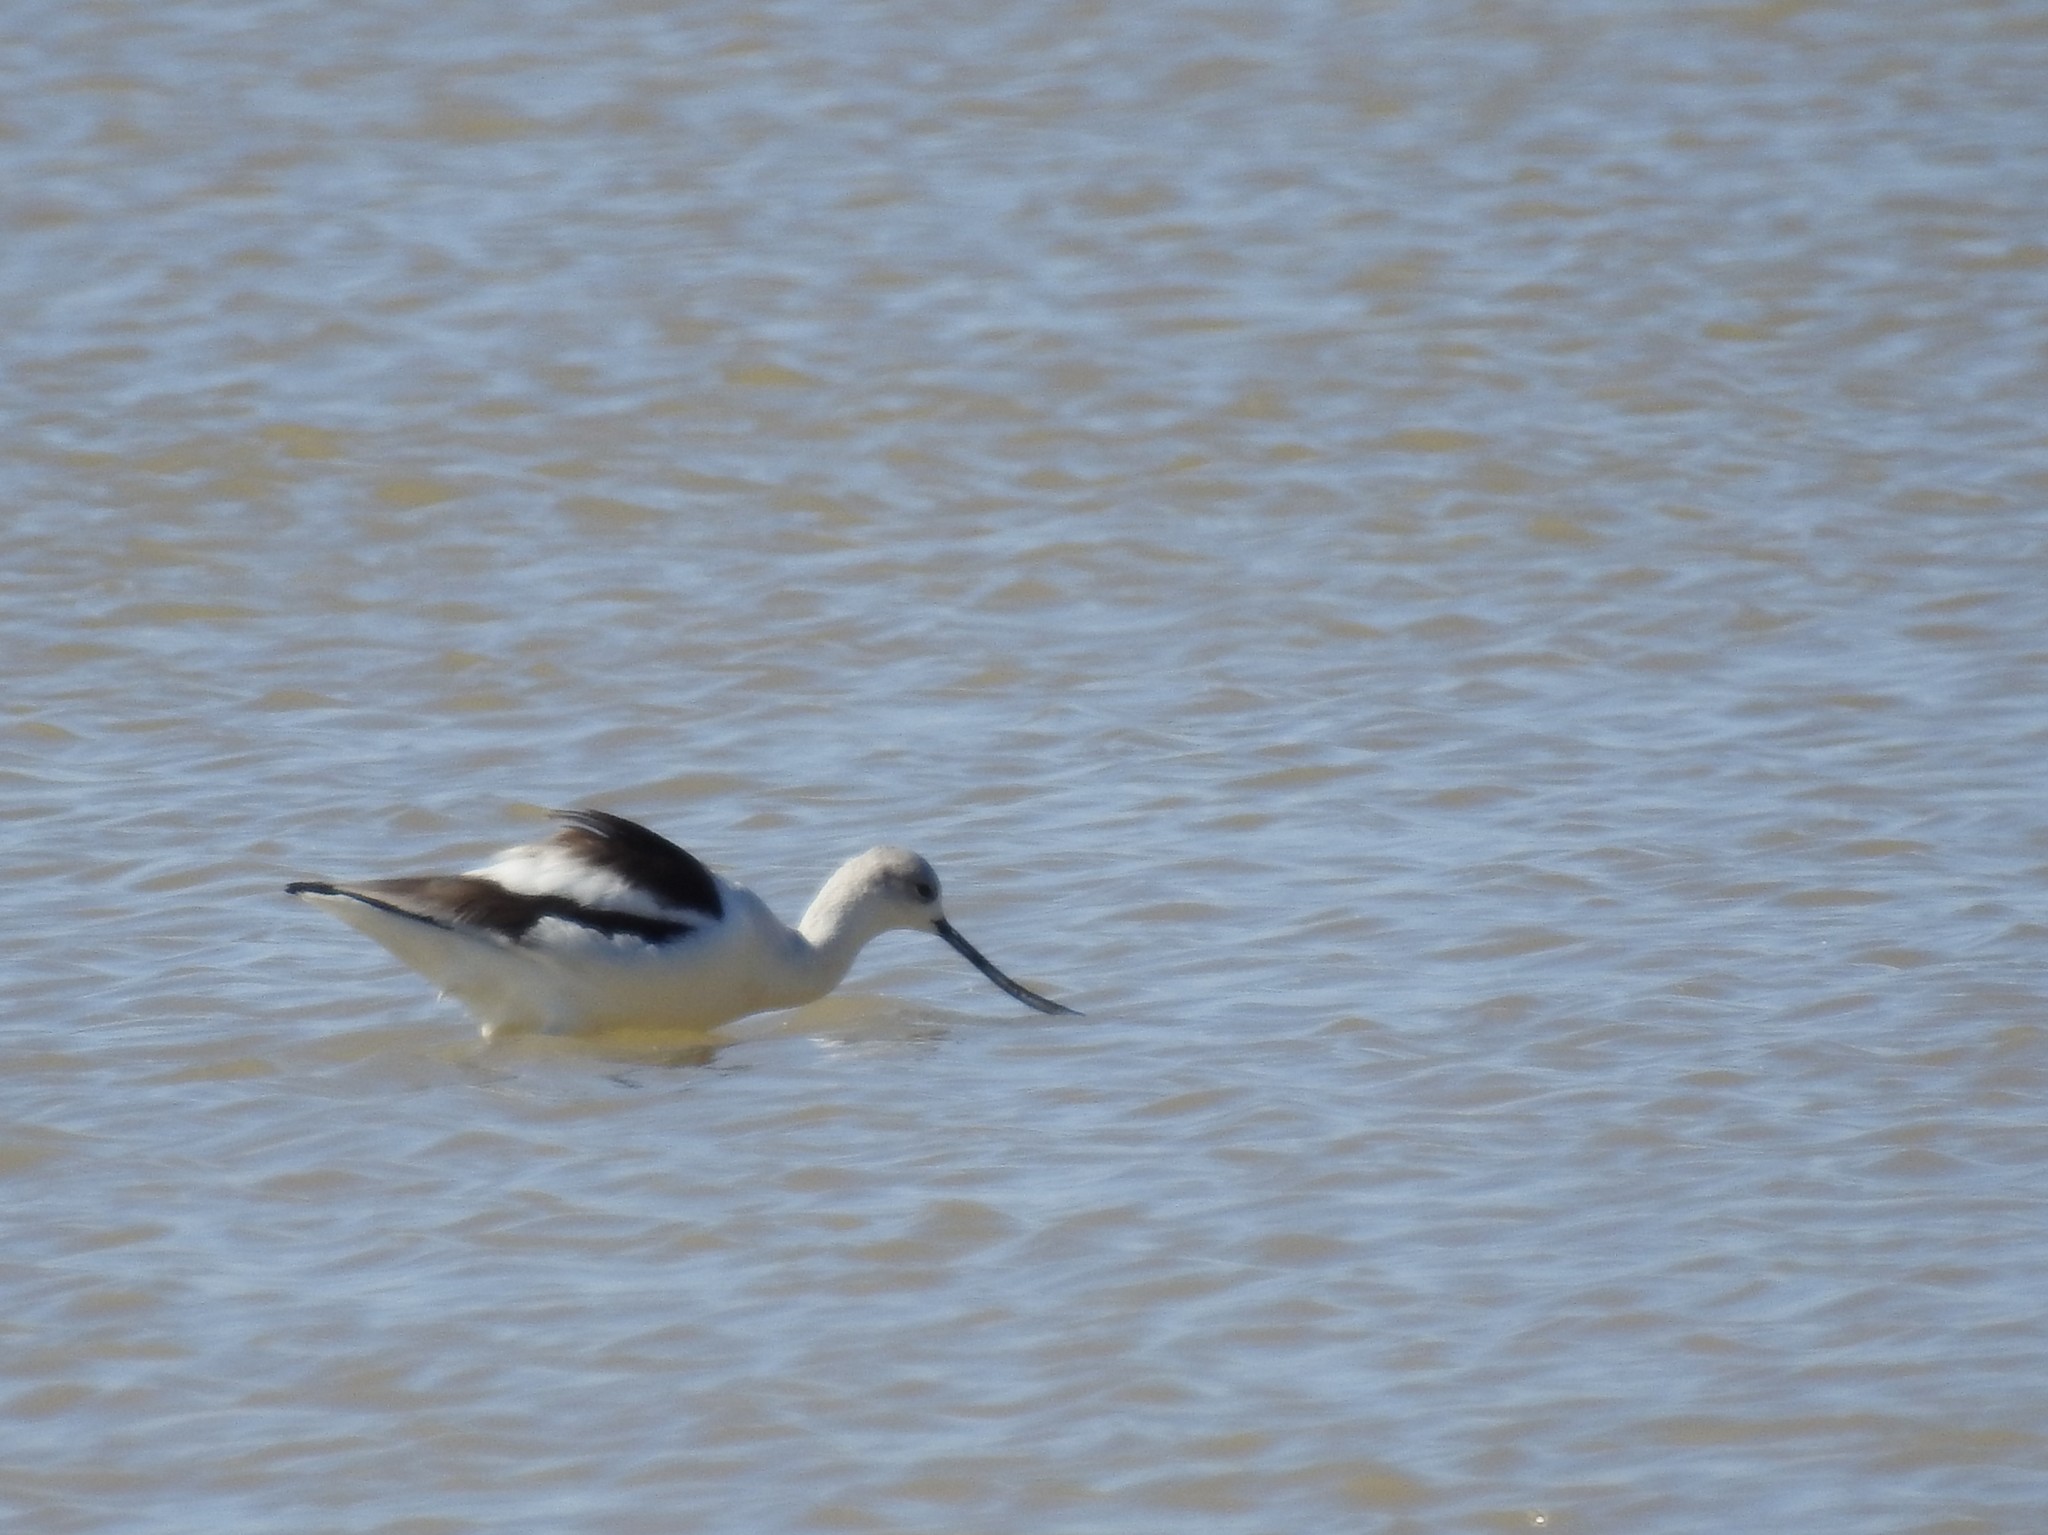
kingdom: Animalia
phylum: Chordata
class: Aves
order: Charadriiformes
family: Recurvirostridae
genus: Recurvirostra
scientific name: Recurvirostra americana
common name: American avocet
